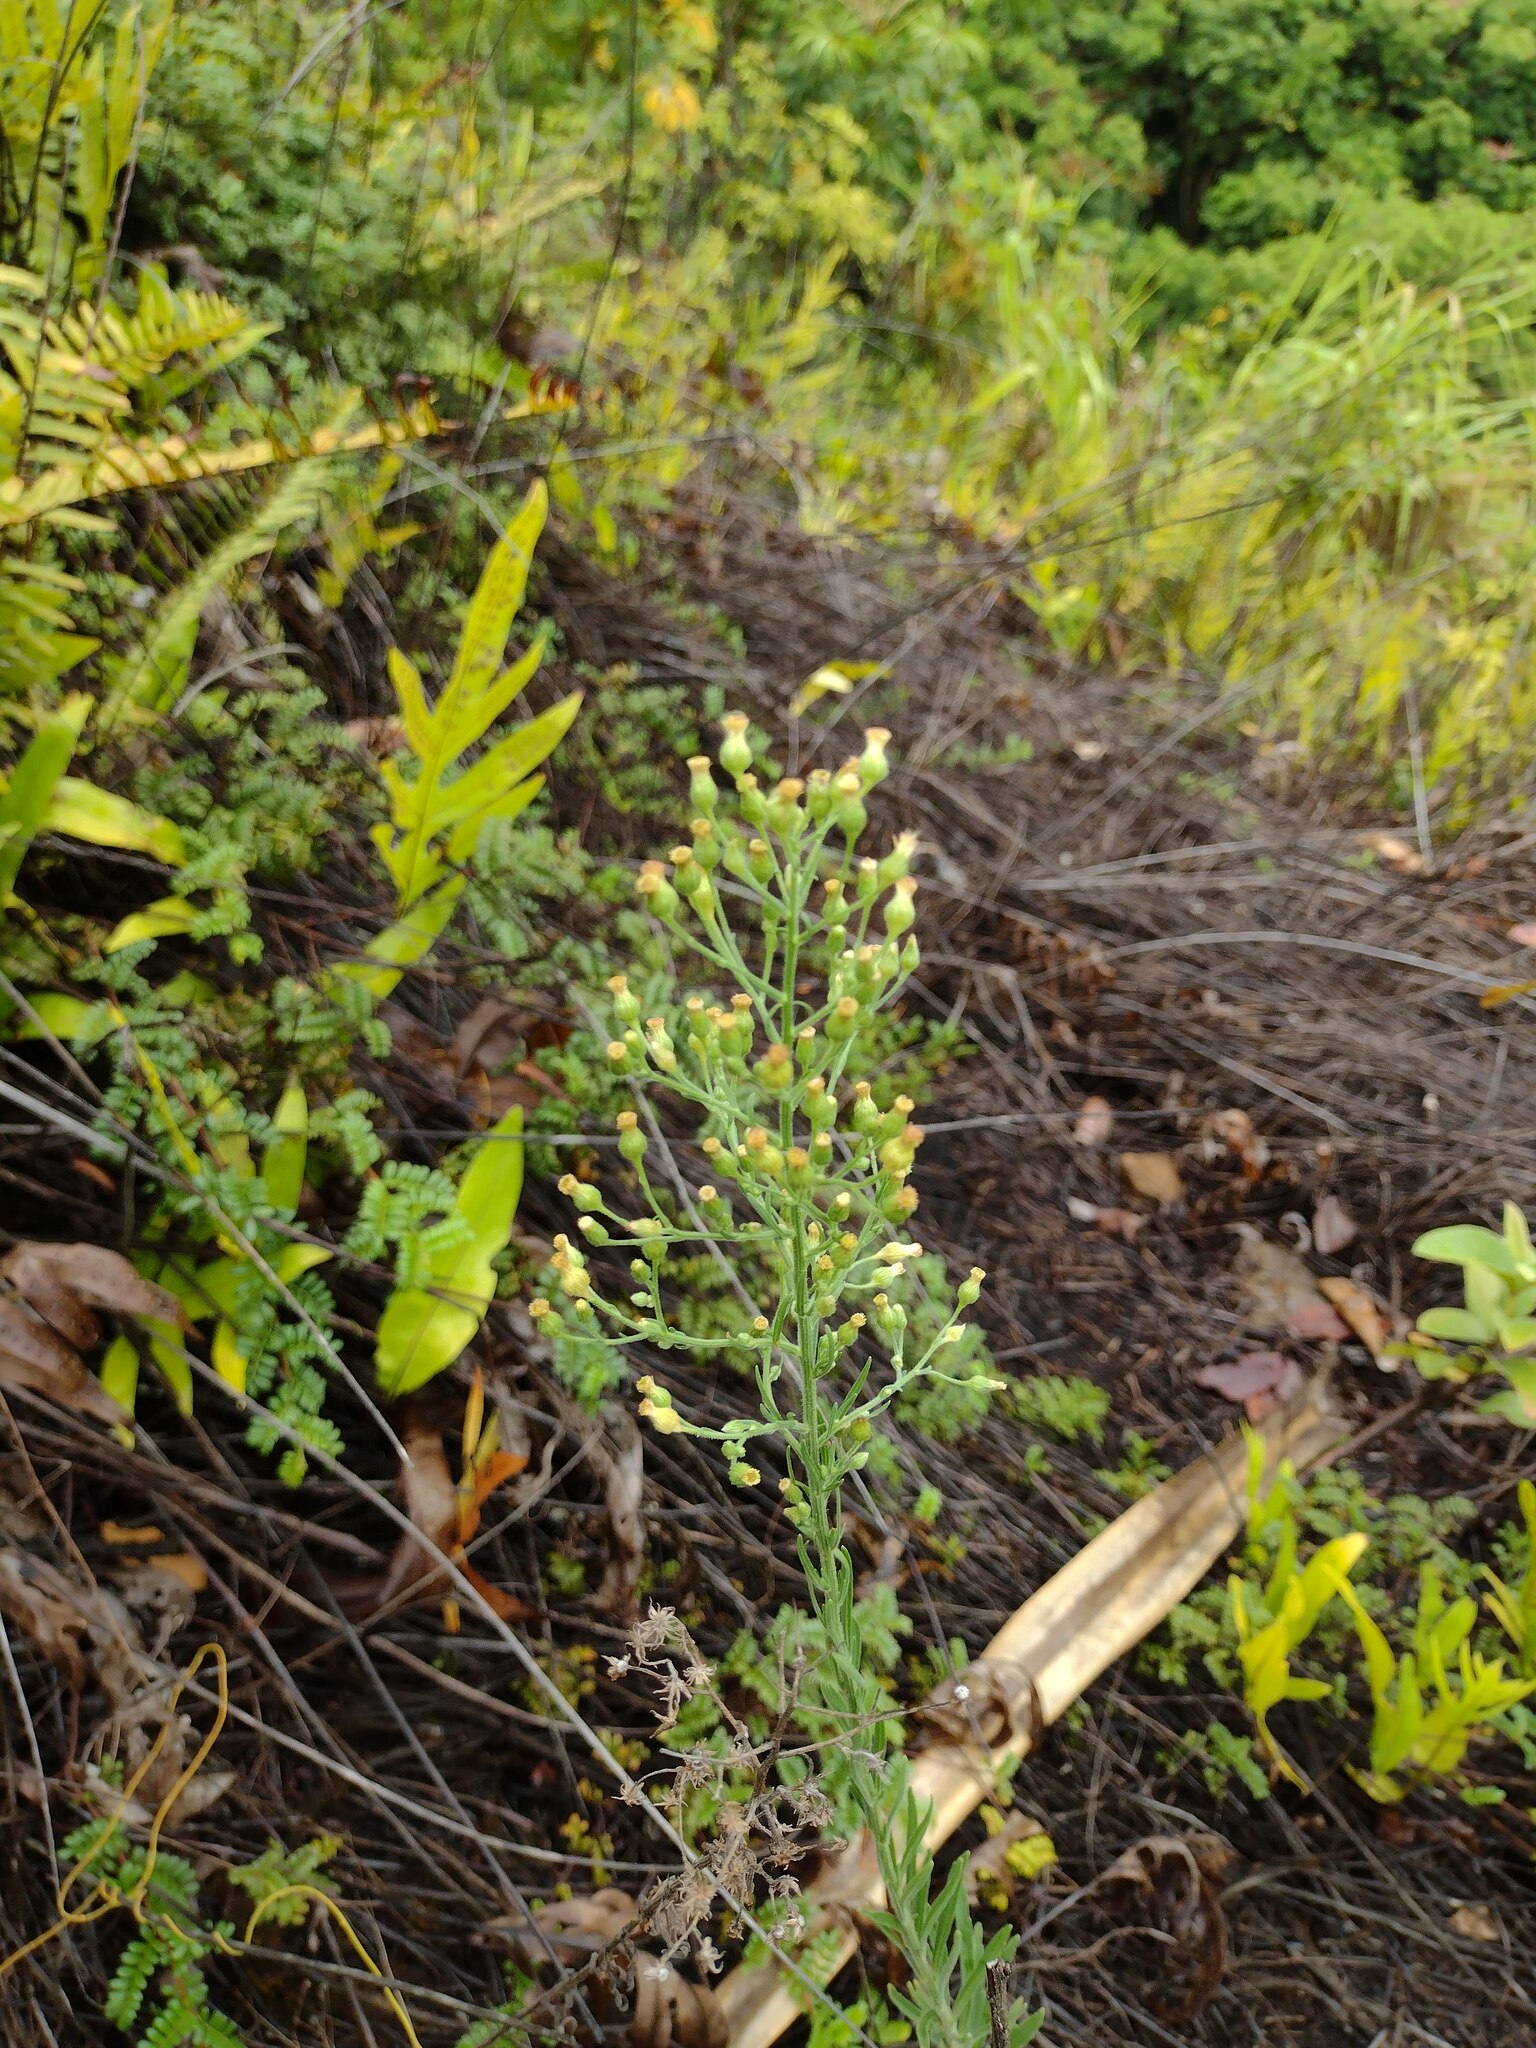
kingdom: Plantae
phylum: Tracheophyta
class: Magnoliopsida
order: Asterales
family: Asteraceae
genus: Erigeron
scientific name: Erigeron sumatrensis
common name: Daisy
